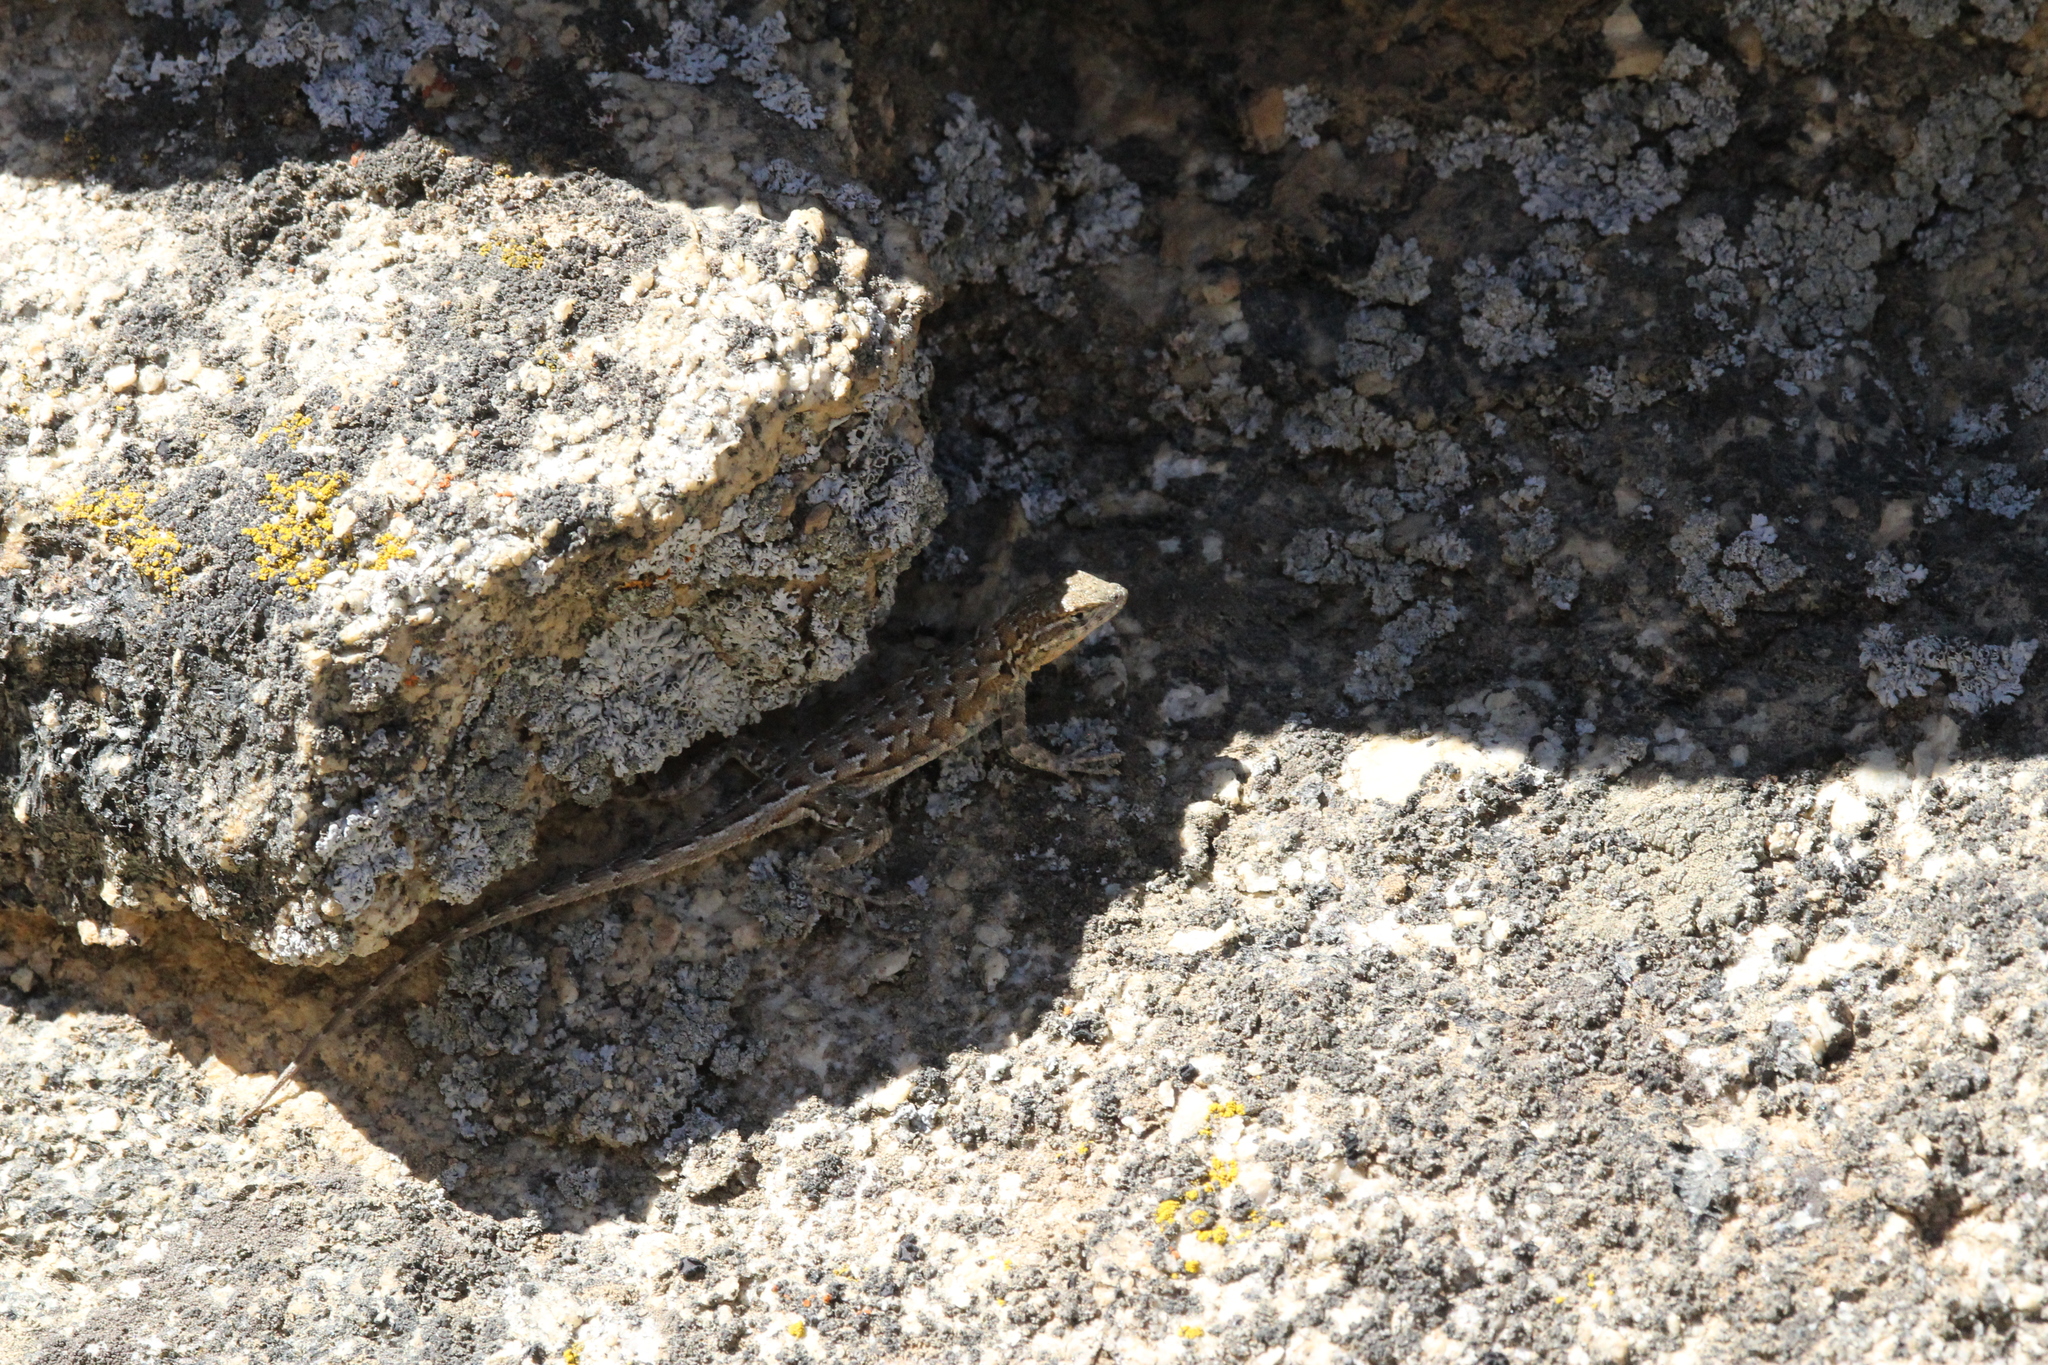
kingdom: Animalia
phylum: Chordata
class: Squamata
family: Phrynosomatidae
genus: Uta
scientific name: Uta stansburiana
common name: Side-blotched lizard
